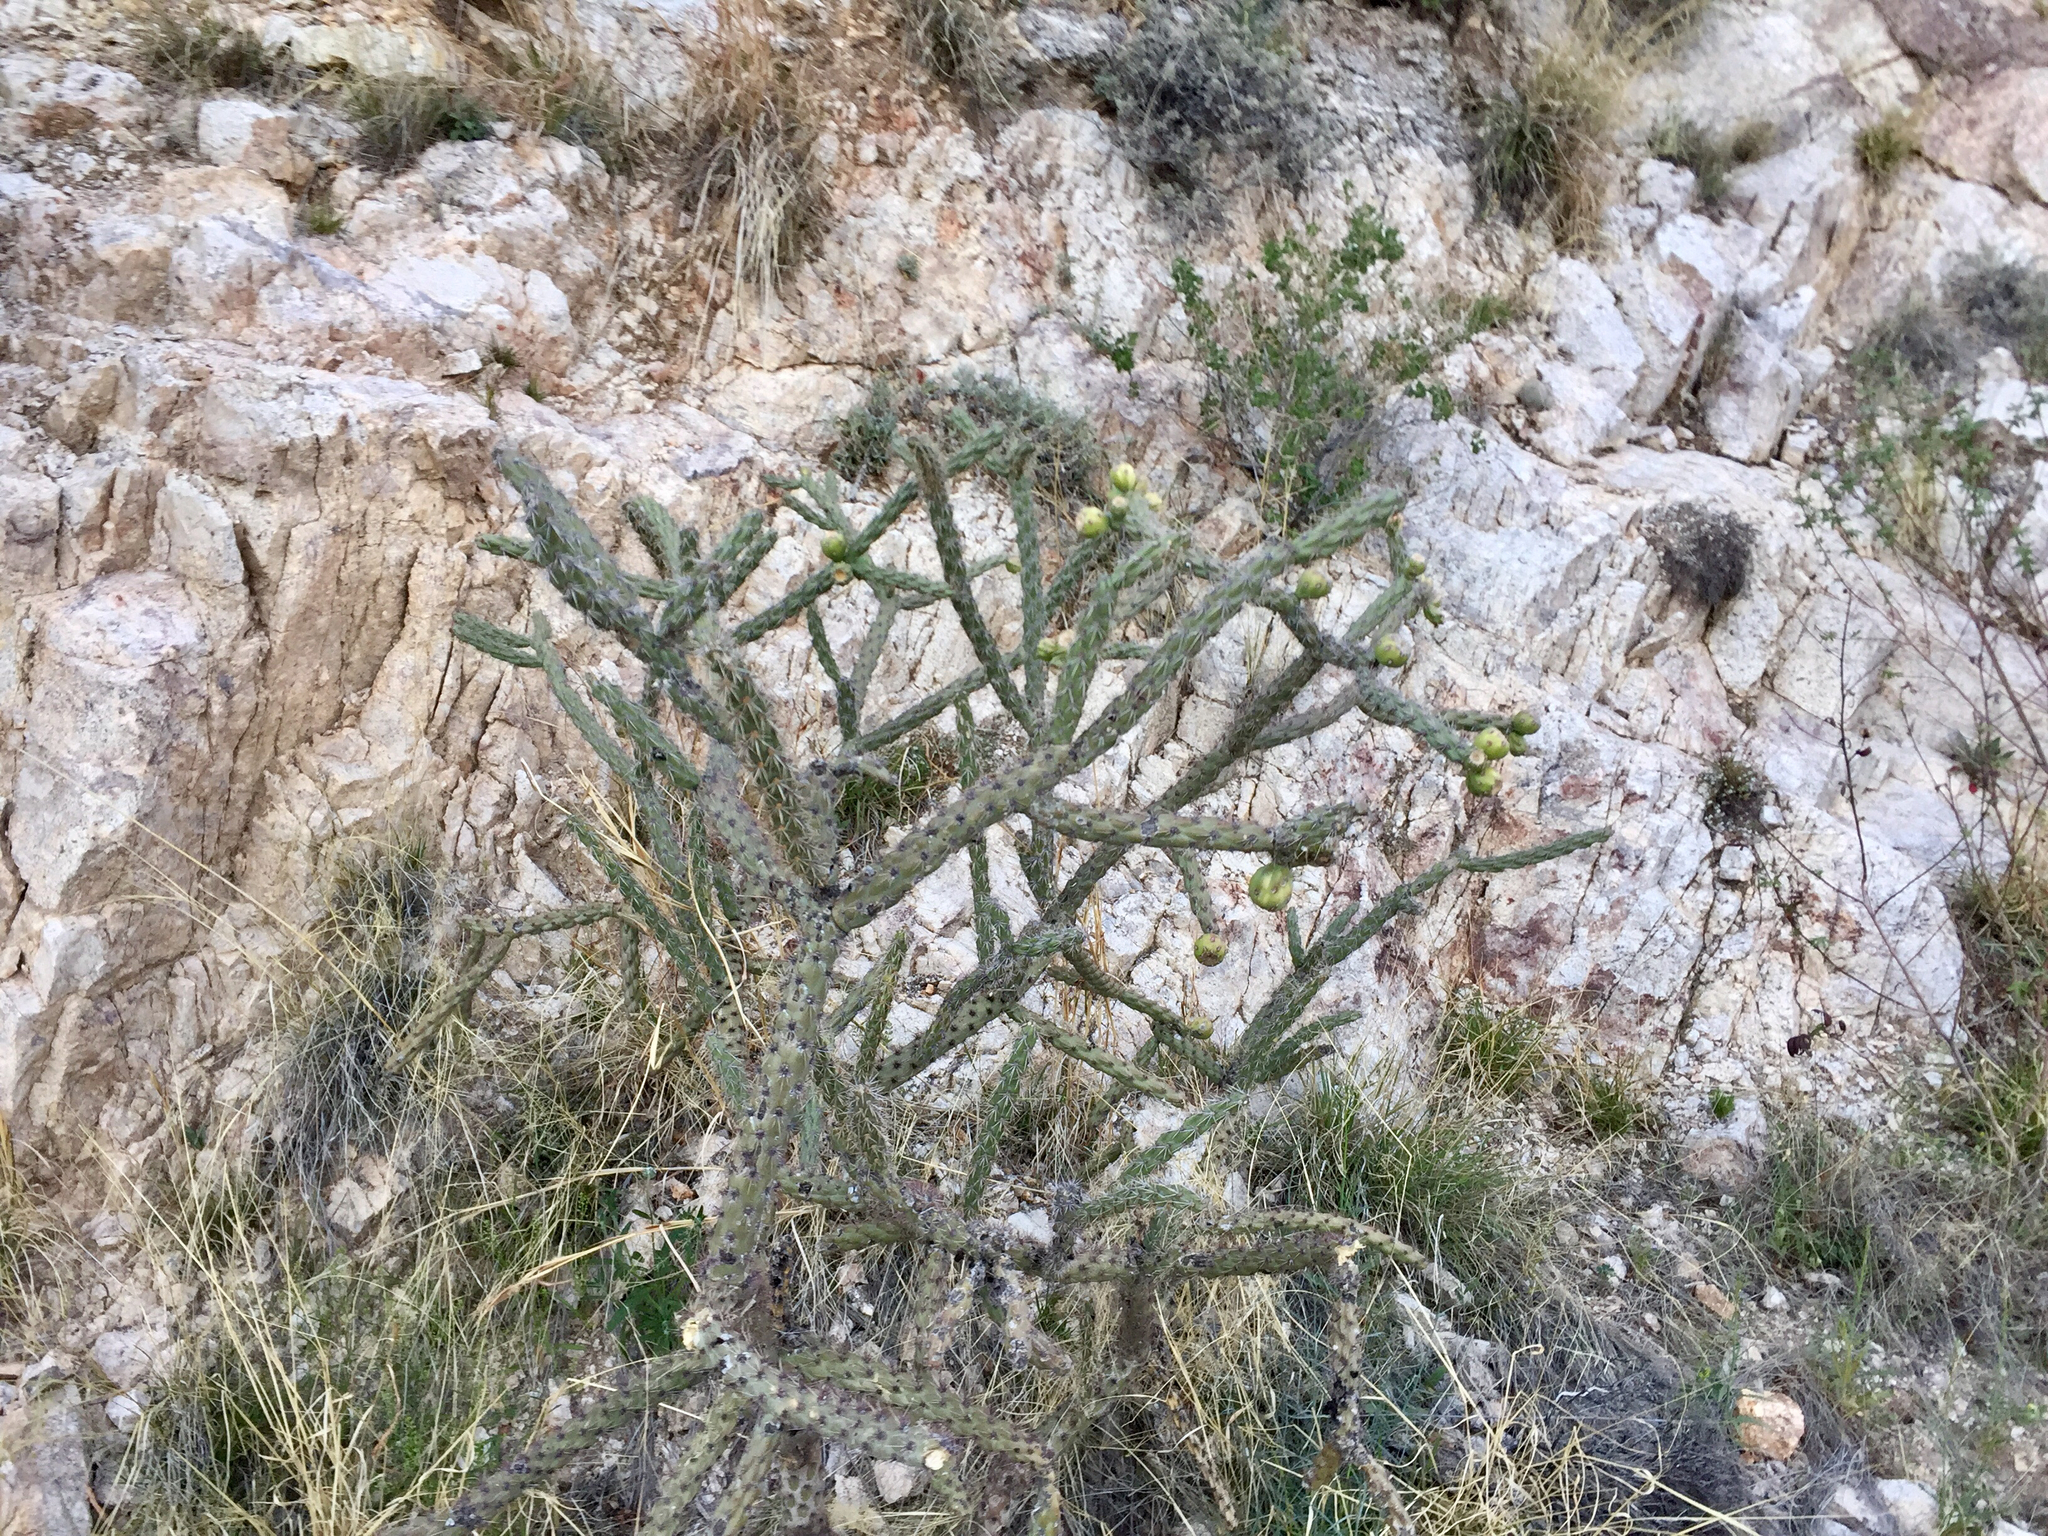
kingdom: Plantae
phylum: Tracheophyta
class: Magnoliopsida
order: Caryophyllales
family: Cactaceae
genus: Cylindropuntia
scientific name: Cylindropuntia imbricata
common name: Candelabrum cactus
